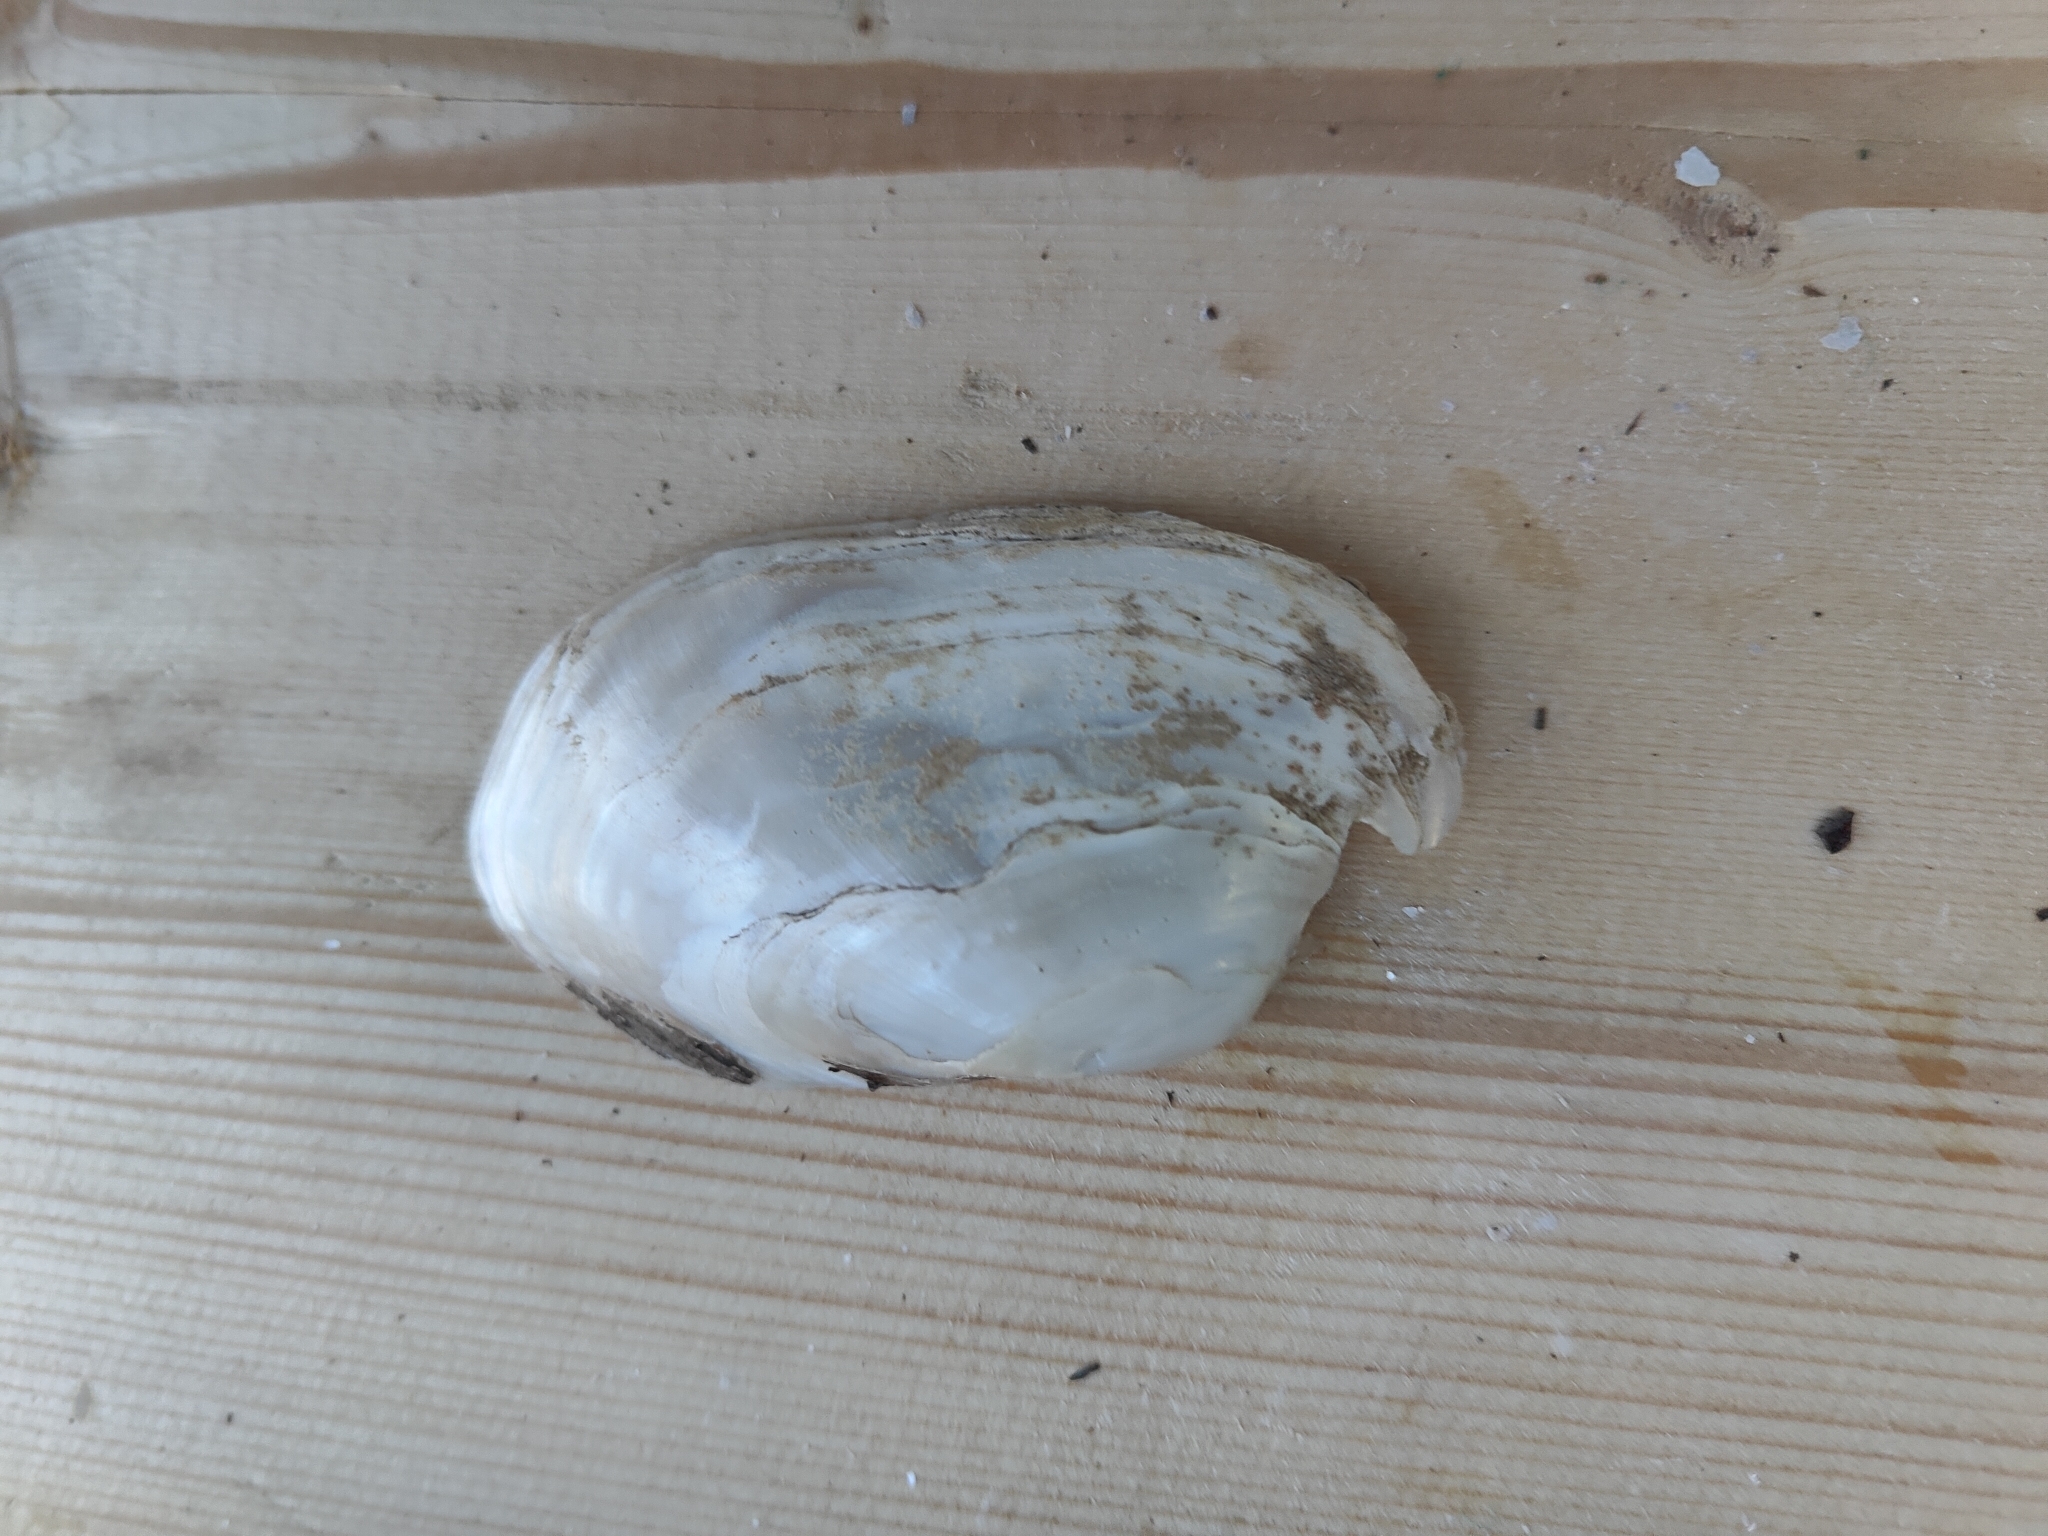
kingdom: Animalia
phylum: Mollusca
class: Bivalvia
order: Unionida
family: Unionidae
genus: Lampsilis
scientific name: Lampsilis siliquoidea
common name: Fatmucket
